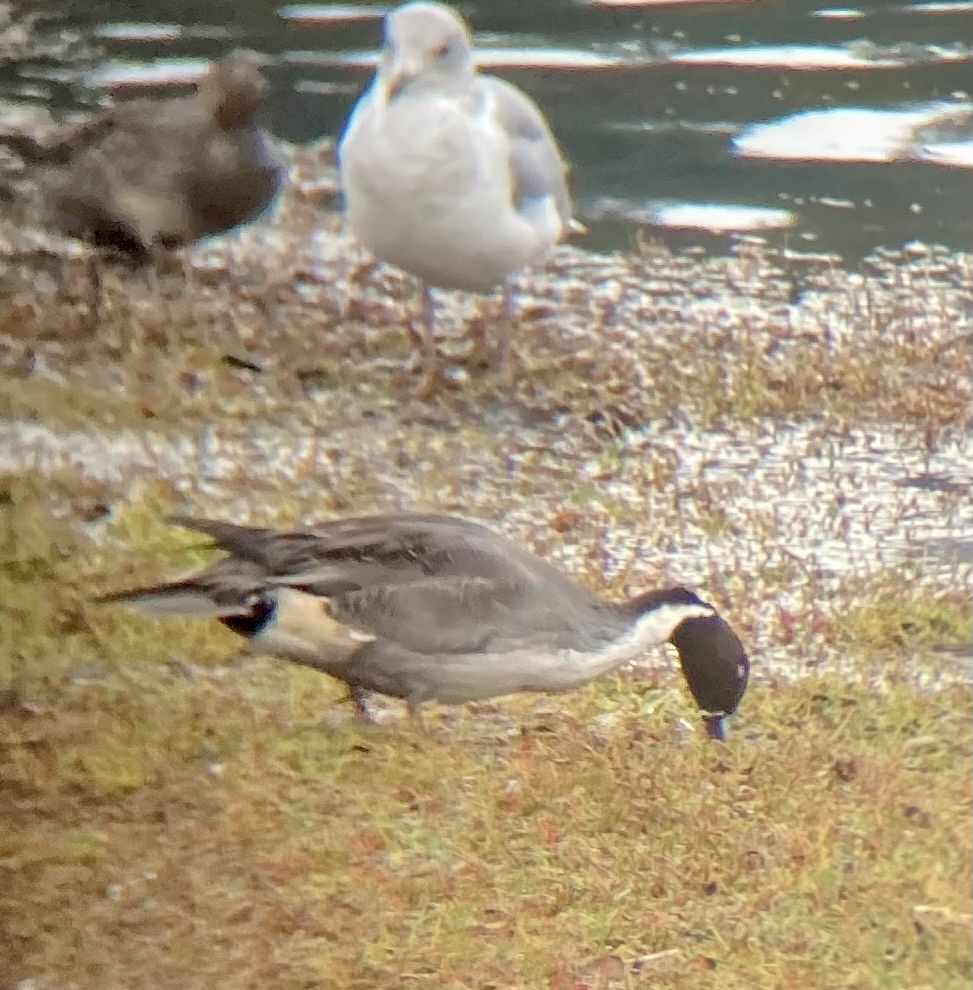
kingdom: Animalia
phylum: Chordata
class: Aves
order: Anseriformes
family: Anatidae
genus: Anas
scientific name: Anas acuta
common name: Northern pintail
